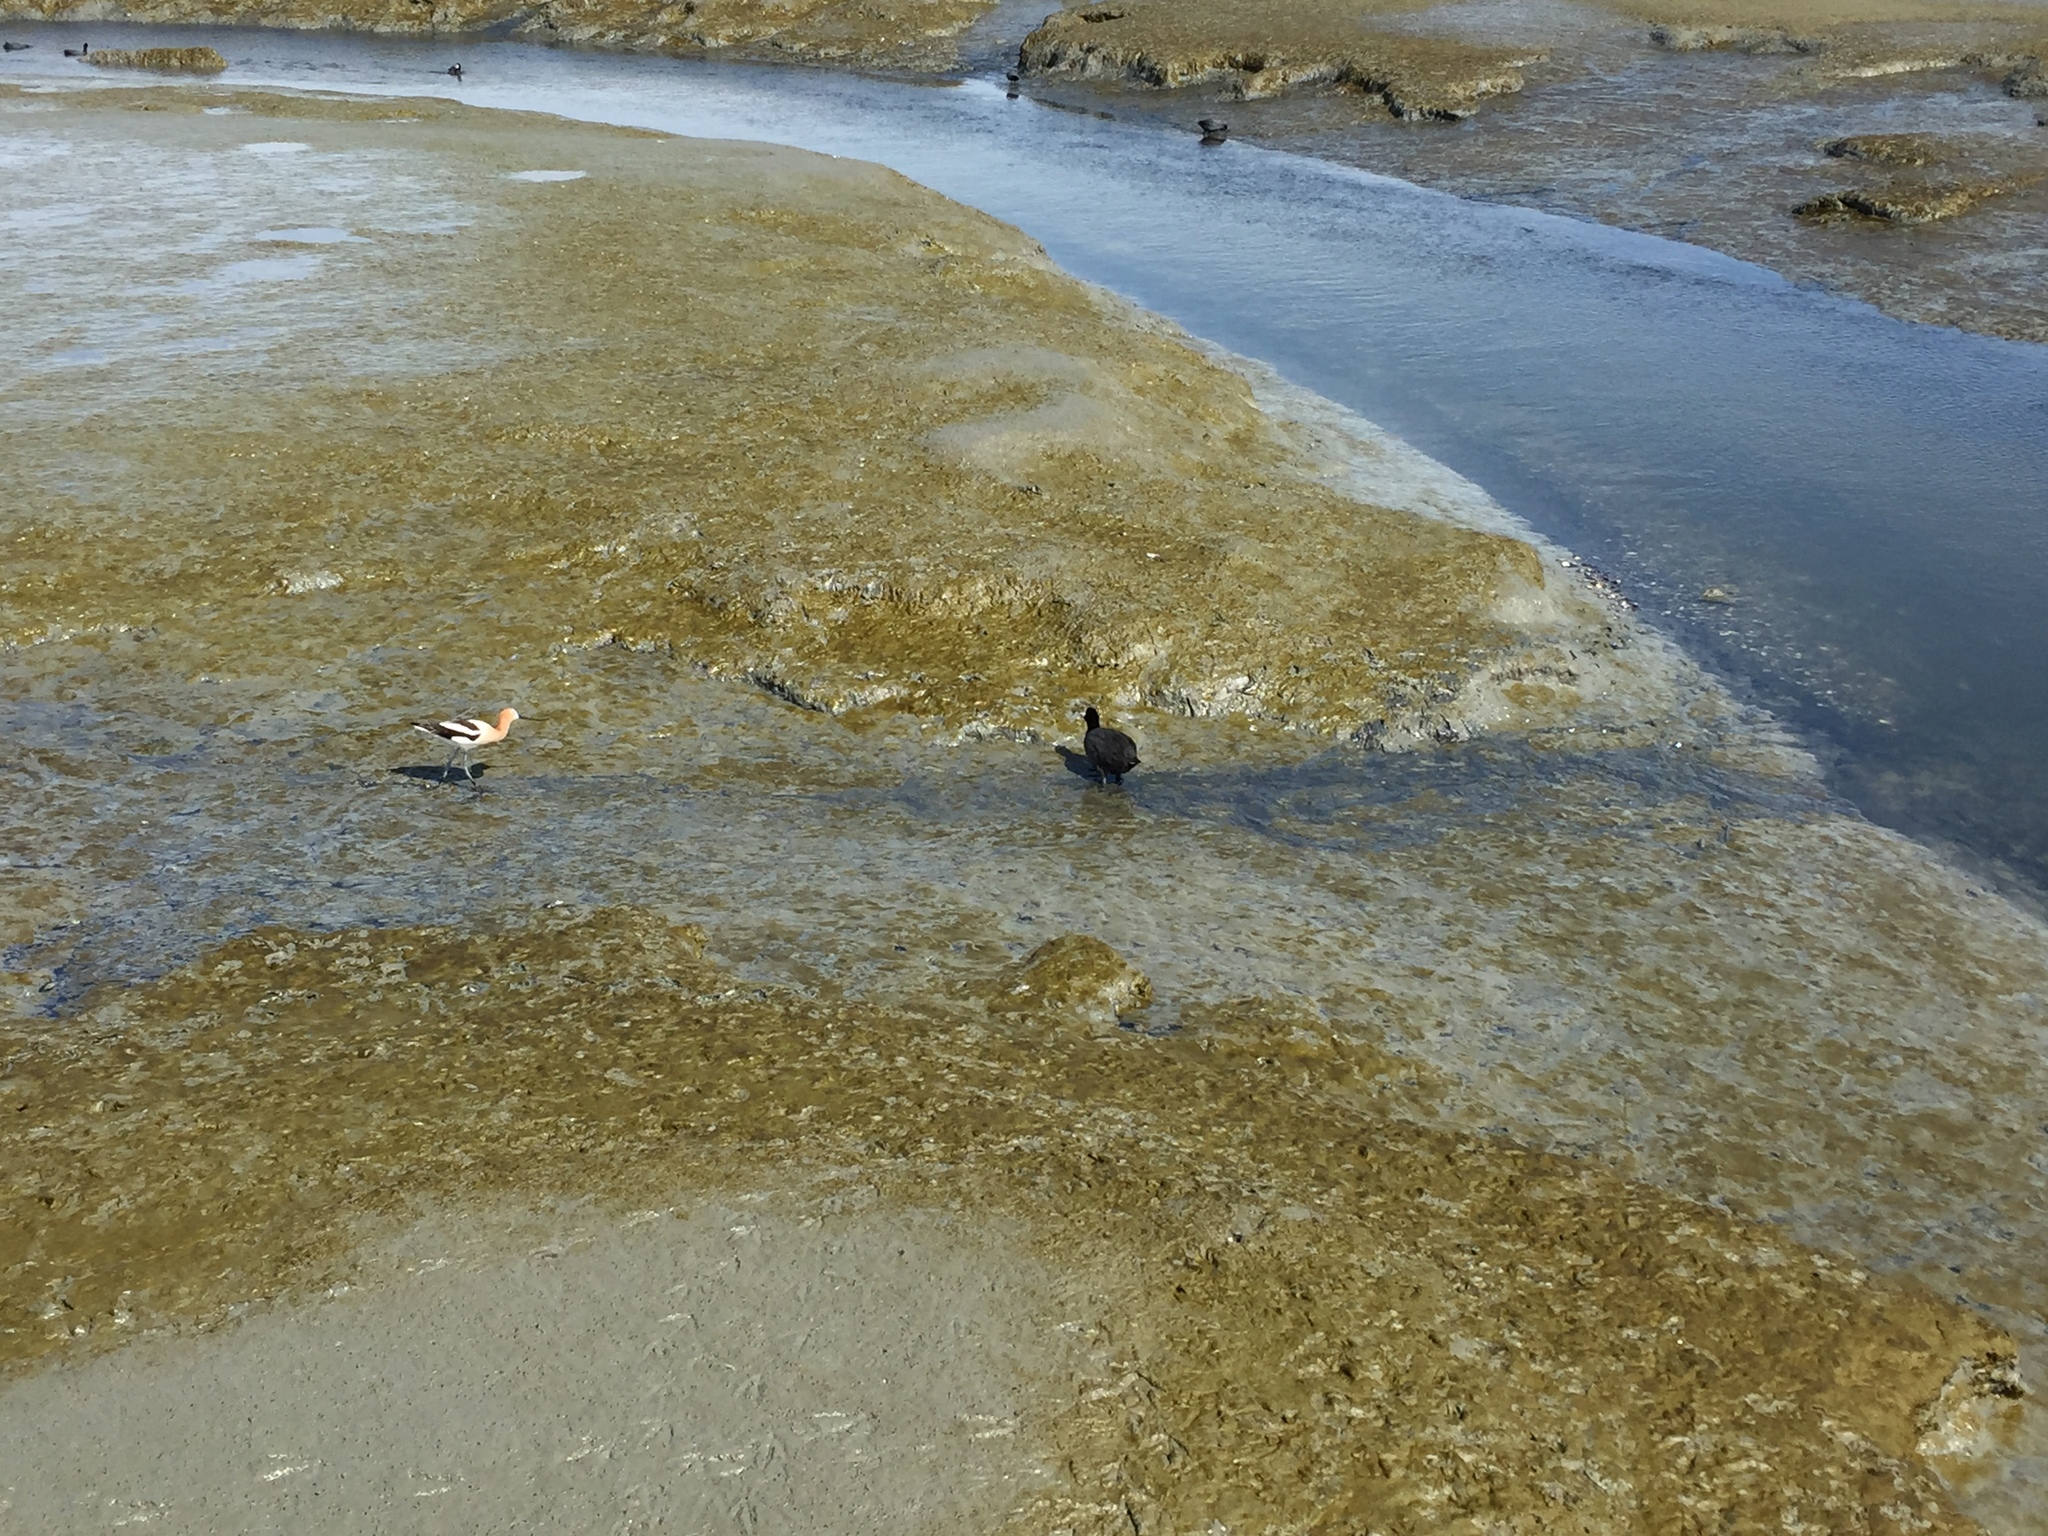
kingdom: Animalia
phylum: Chordata
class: Aves
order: Charadriiformes
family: Recurvirostridae
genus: Recurvirostra
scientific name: Recurvirostra americana
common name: American avocet
